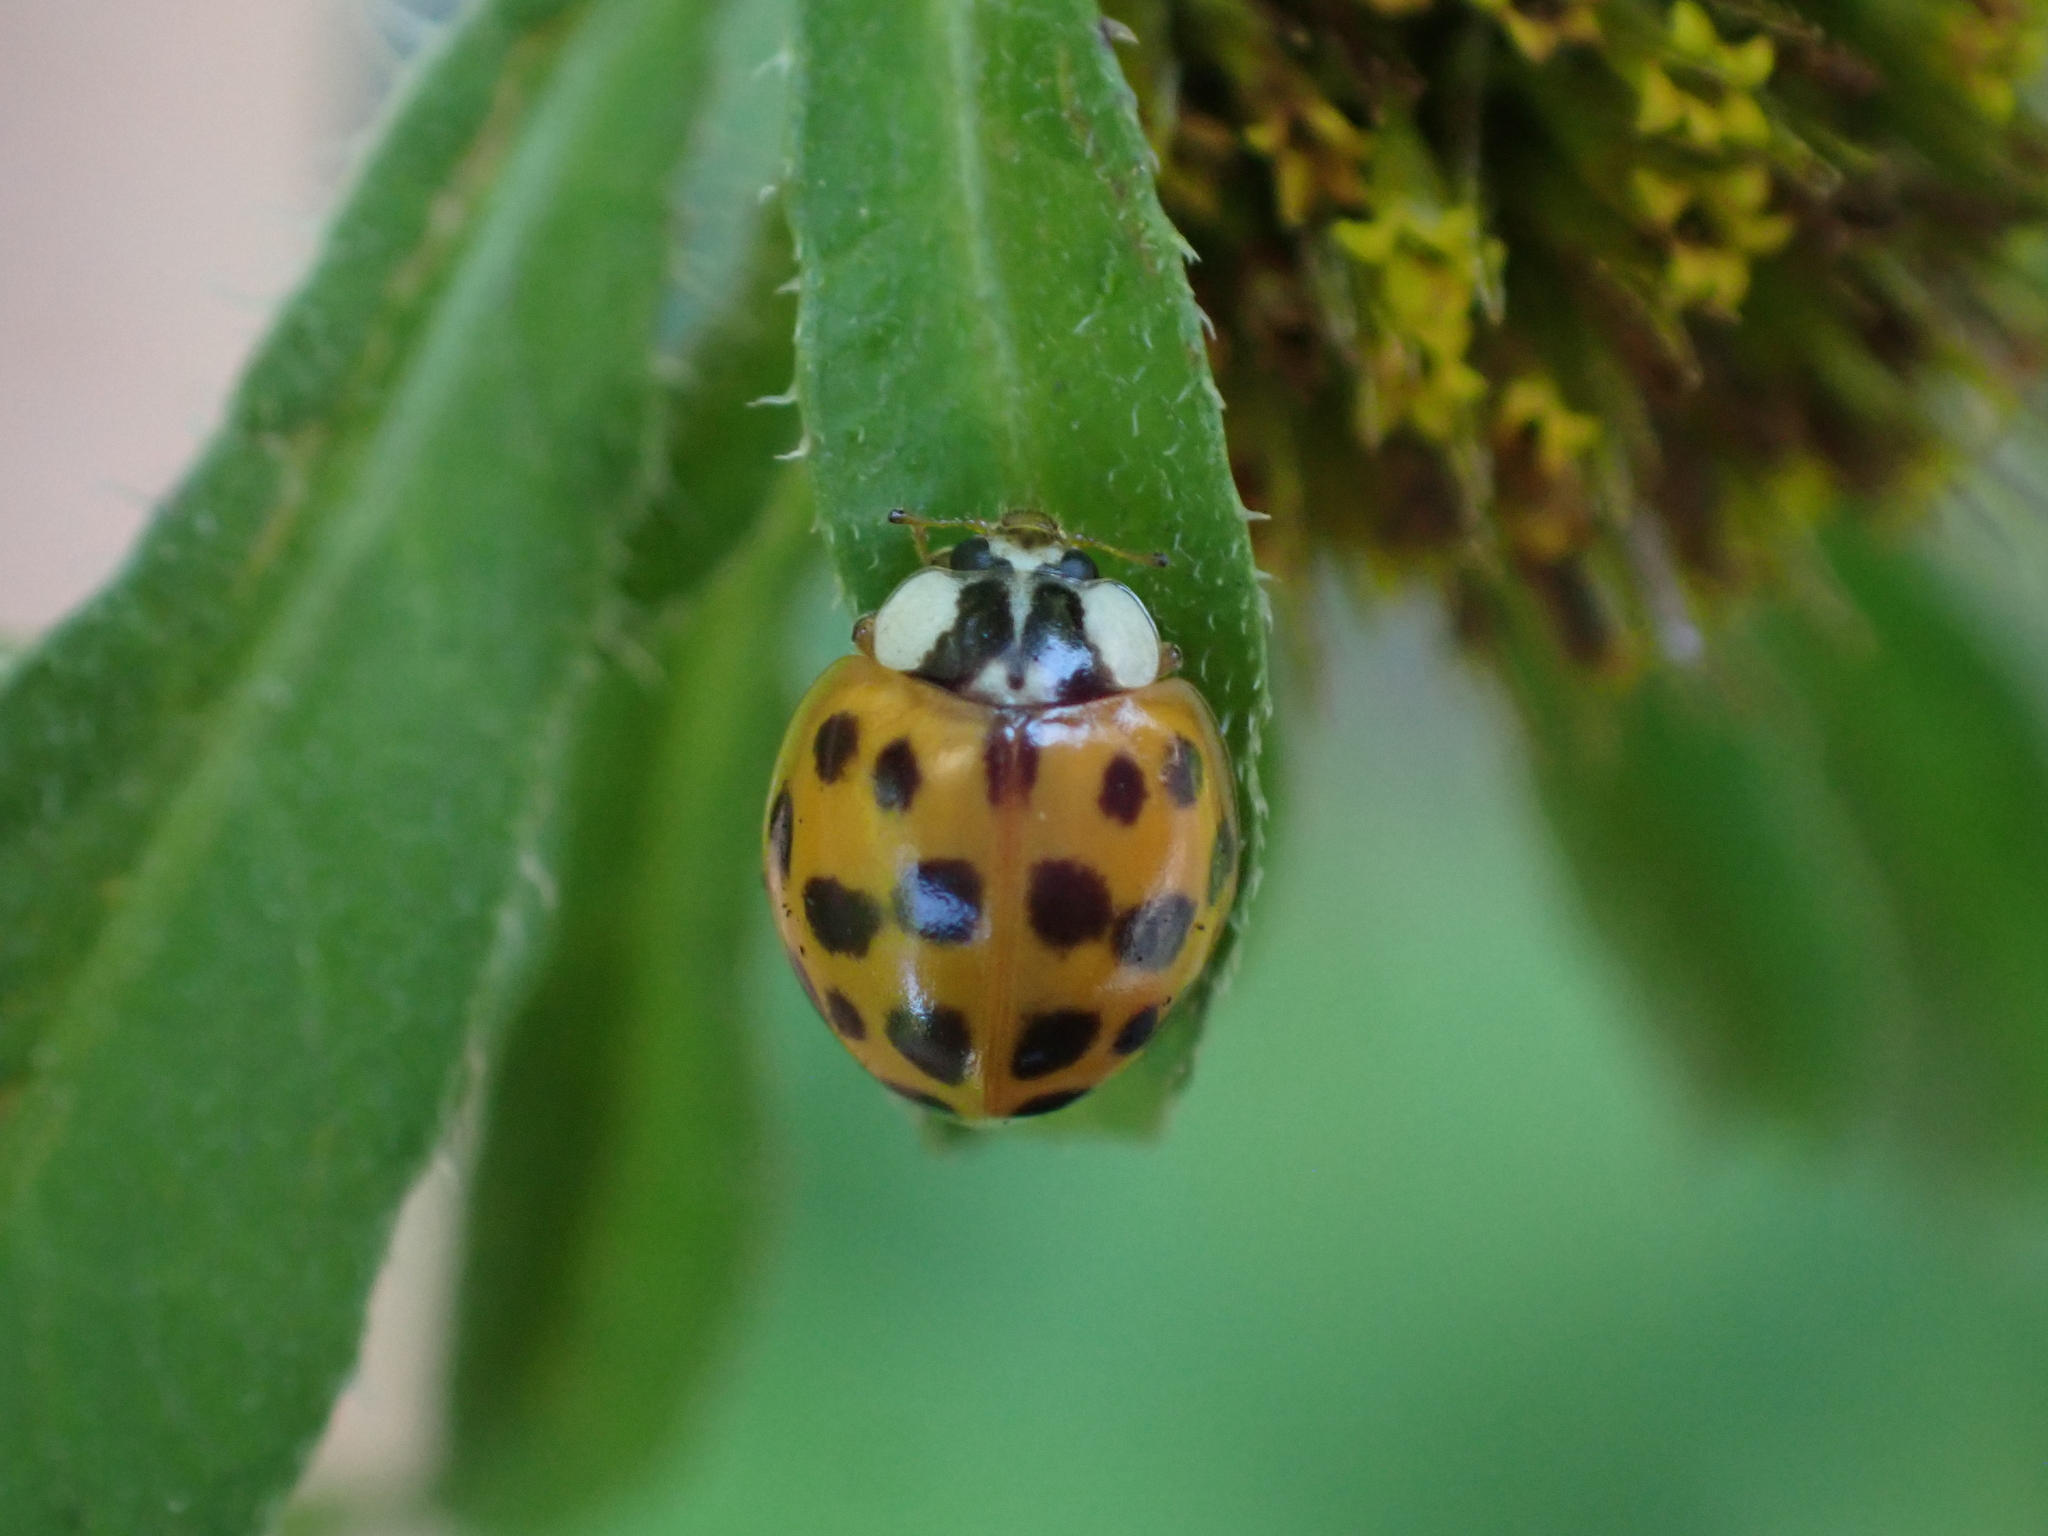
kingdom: Animalia
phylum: Arthropoda
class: Insecta
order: Coleoptera
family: Coccinellidae
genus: Harmonia
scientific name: Harmonia axyridis
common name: Harlequin ladybird
